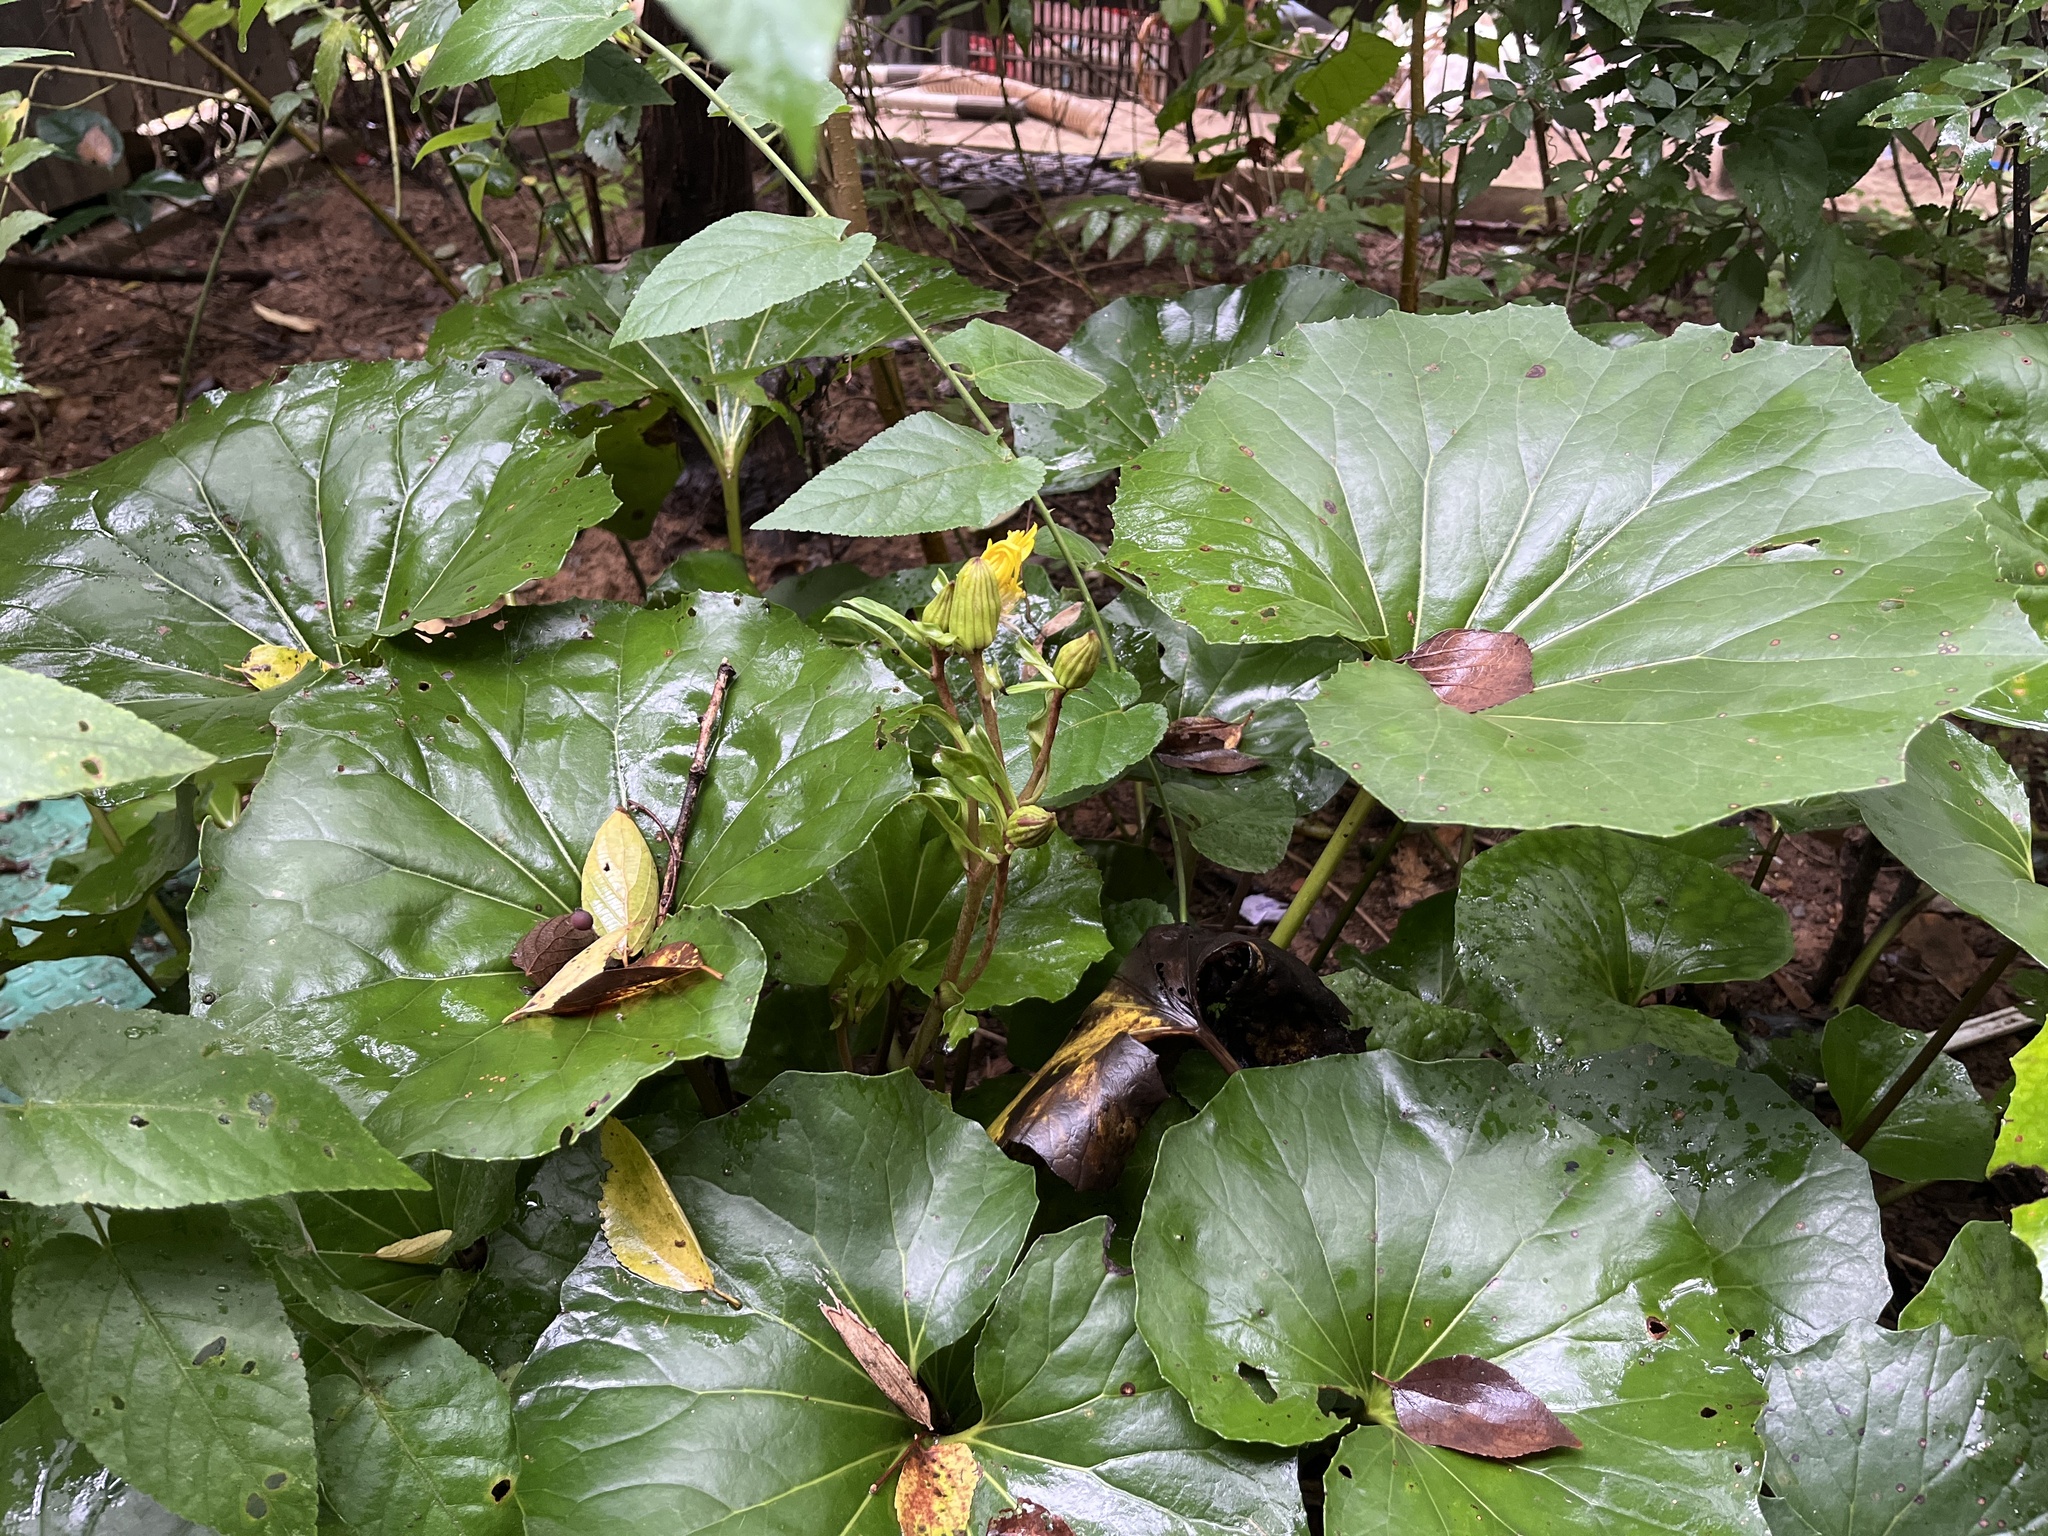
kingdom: Plantae
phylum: Tracheophyta
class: Magnoliopsida
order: Asterales
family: Asteraceae
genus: Farfugium
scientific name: Farfugium japonicum
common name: Leopardplant
